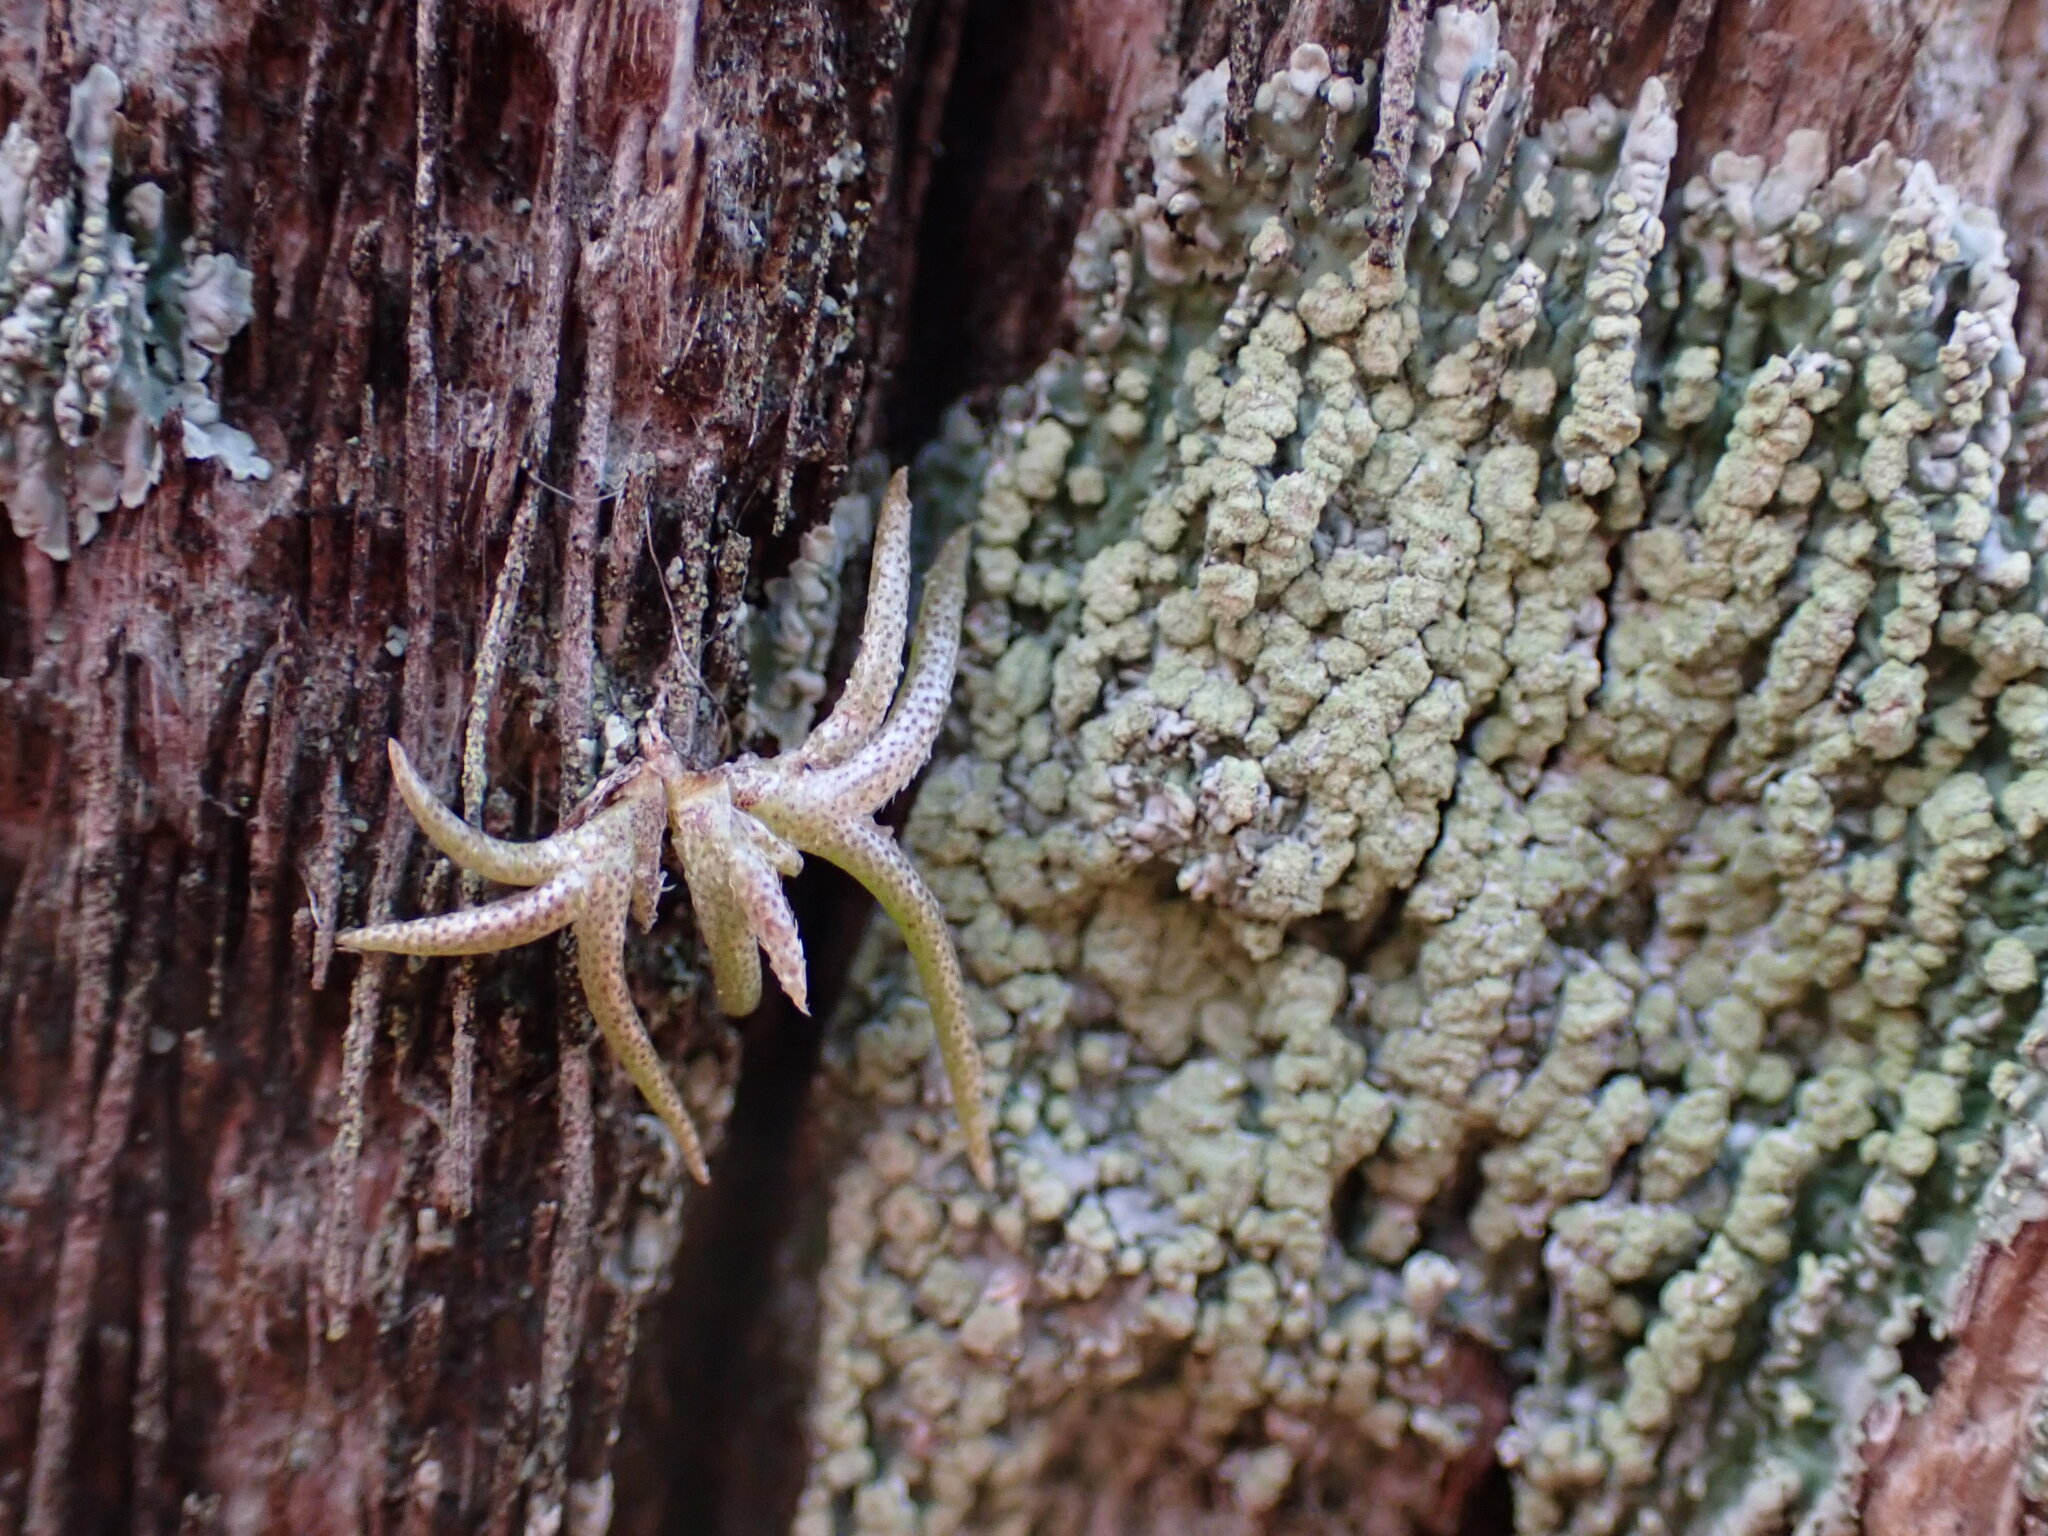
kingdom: Plantae
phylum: Tracheophyta
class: Liliopsida
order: Poales
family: Bromeliaceae
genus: Tillandsia
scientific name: Tillandsia recurvata
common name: Small ballmoss
